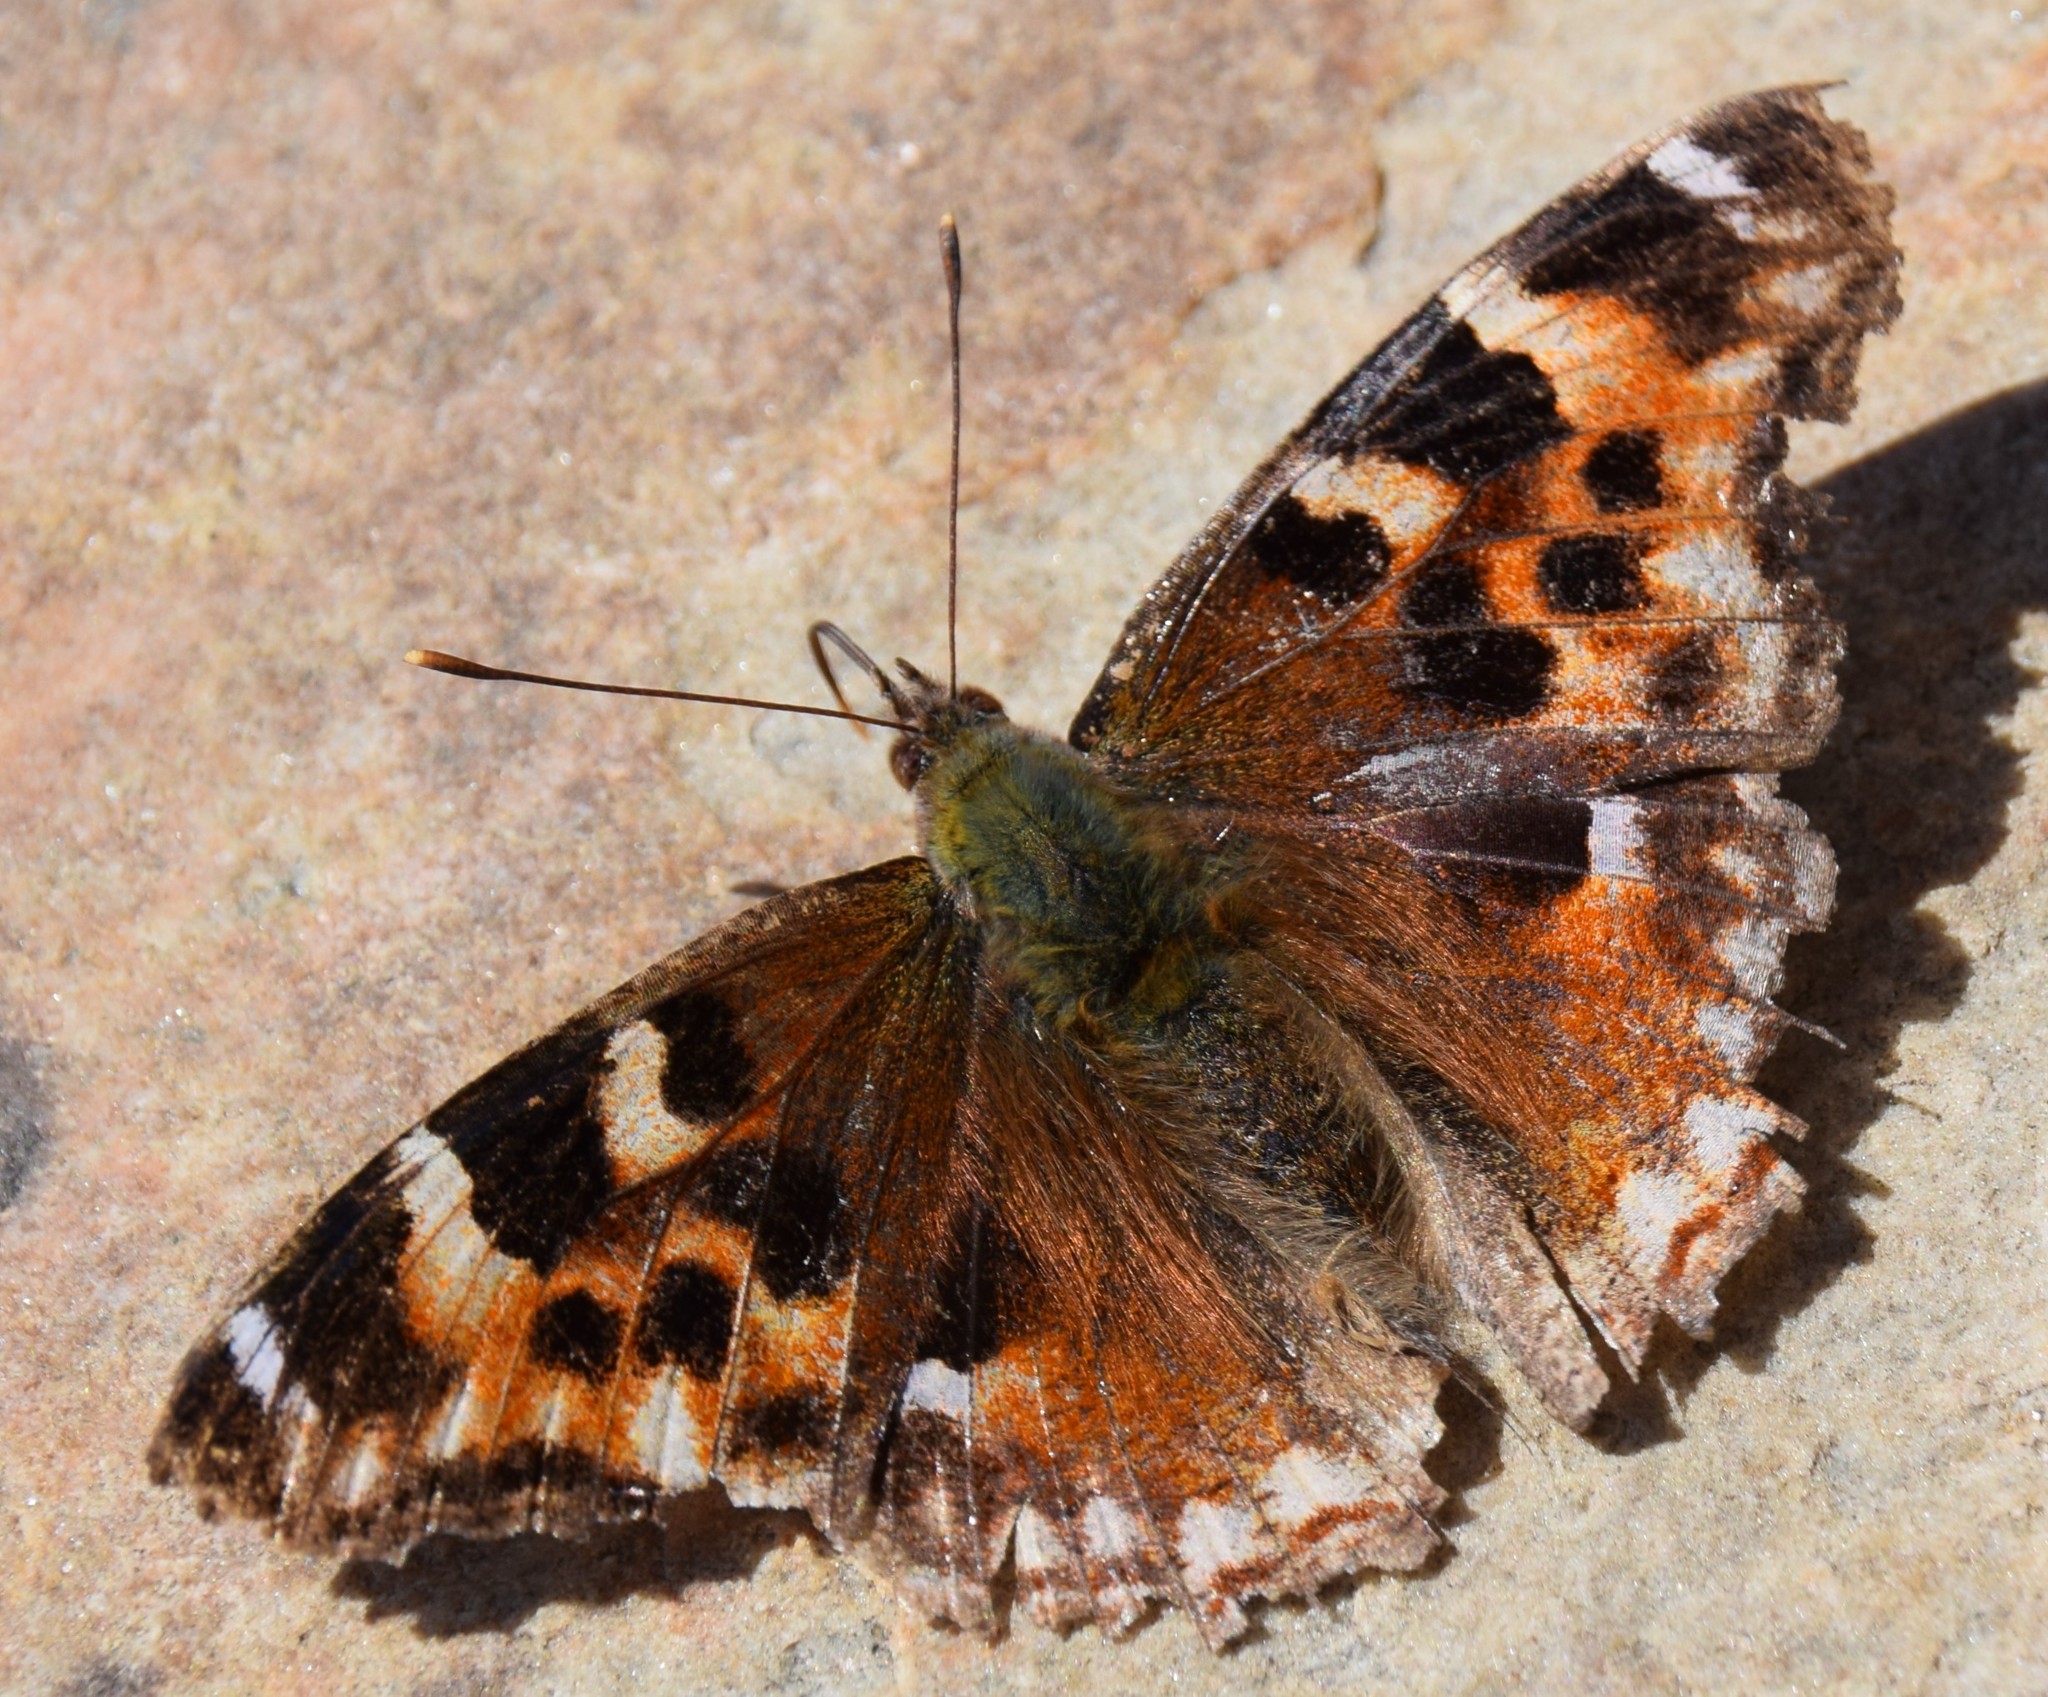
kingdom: Animalia
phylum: Arthropoda
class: Insecta
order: Lepidoptera
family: Nymphalidae
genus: Polygonia
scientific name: Polygonia vaualbum
